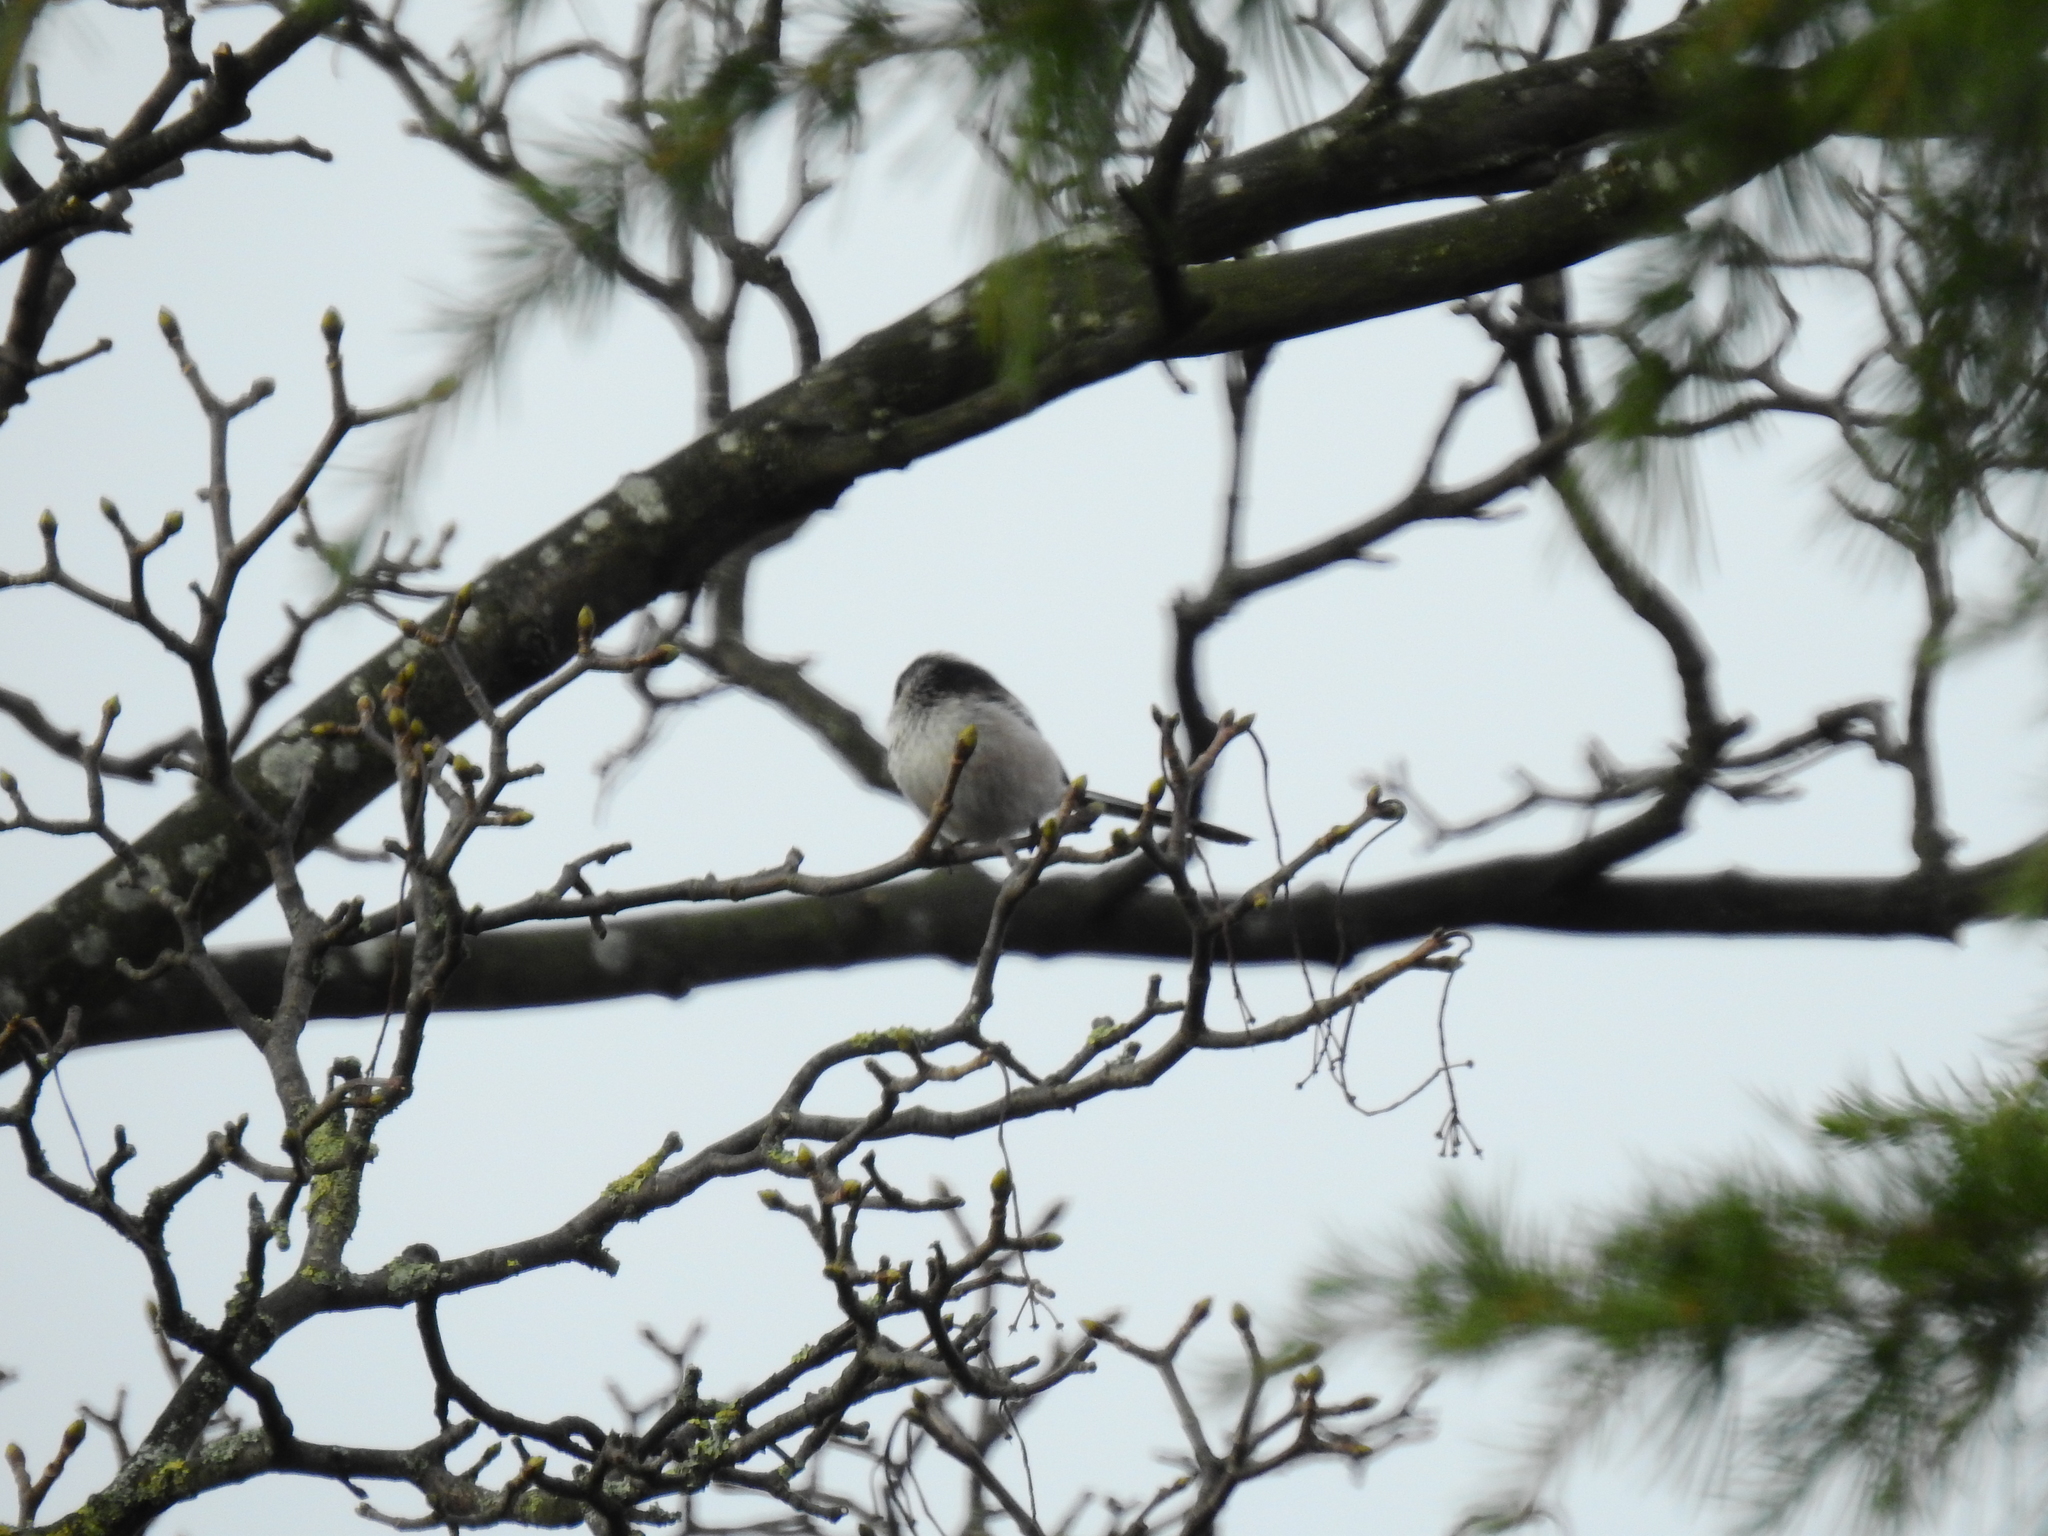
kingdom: Animalia
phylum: Chordata
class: Aves
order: Passeriformes
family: Aegithalidae
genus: Aegithalos
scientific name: Aegithalos caudatus
